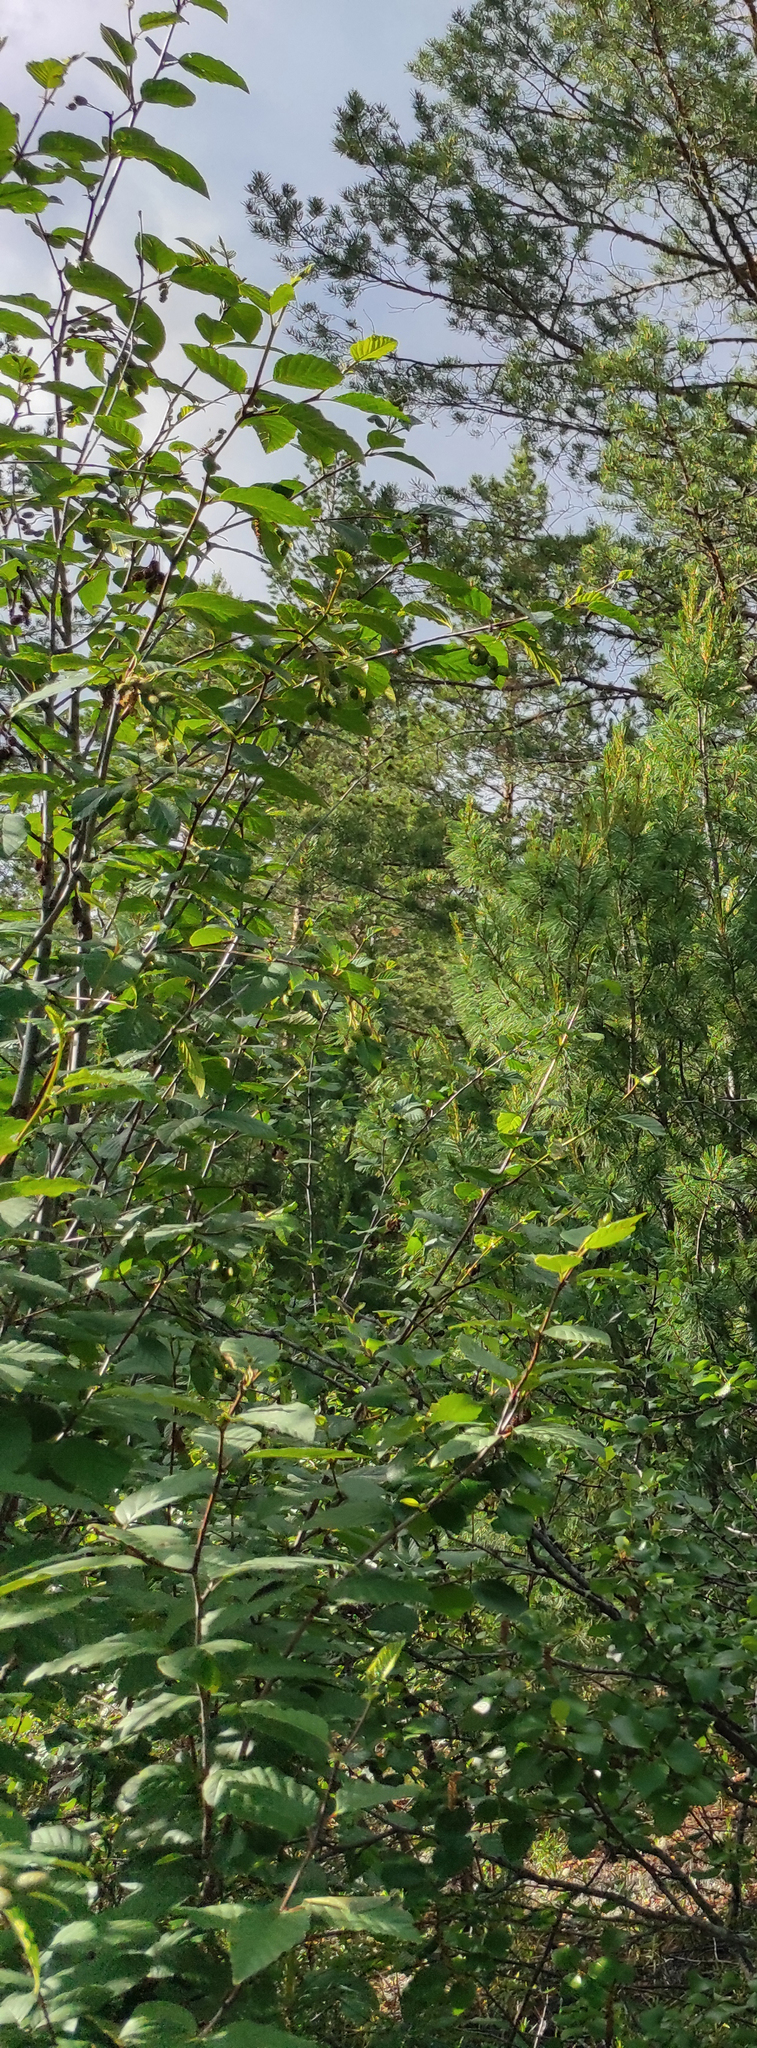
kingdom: Plantae
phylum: Tracheophyta
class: Magnoliopsida
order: Fagales
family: Betulaceae
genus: Alnus
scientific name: Alnus alnobetula
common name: Green alder
